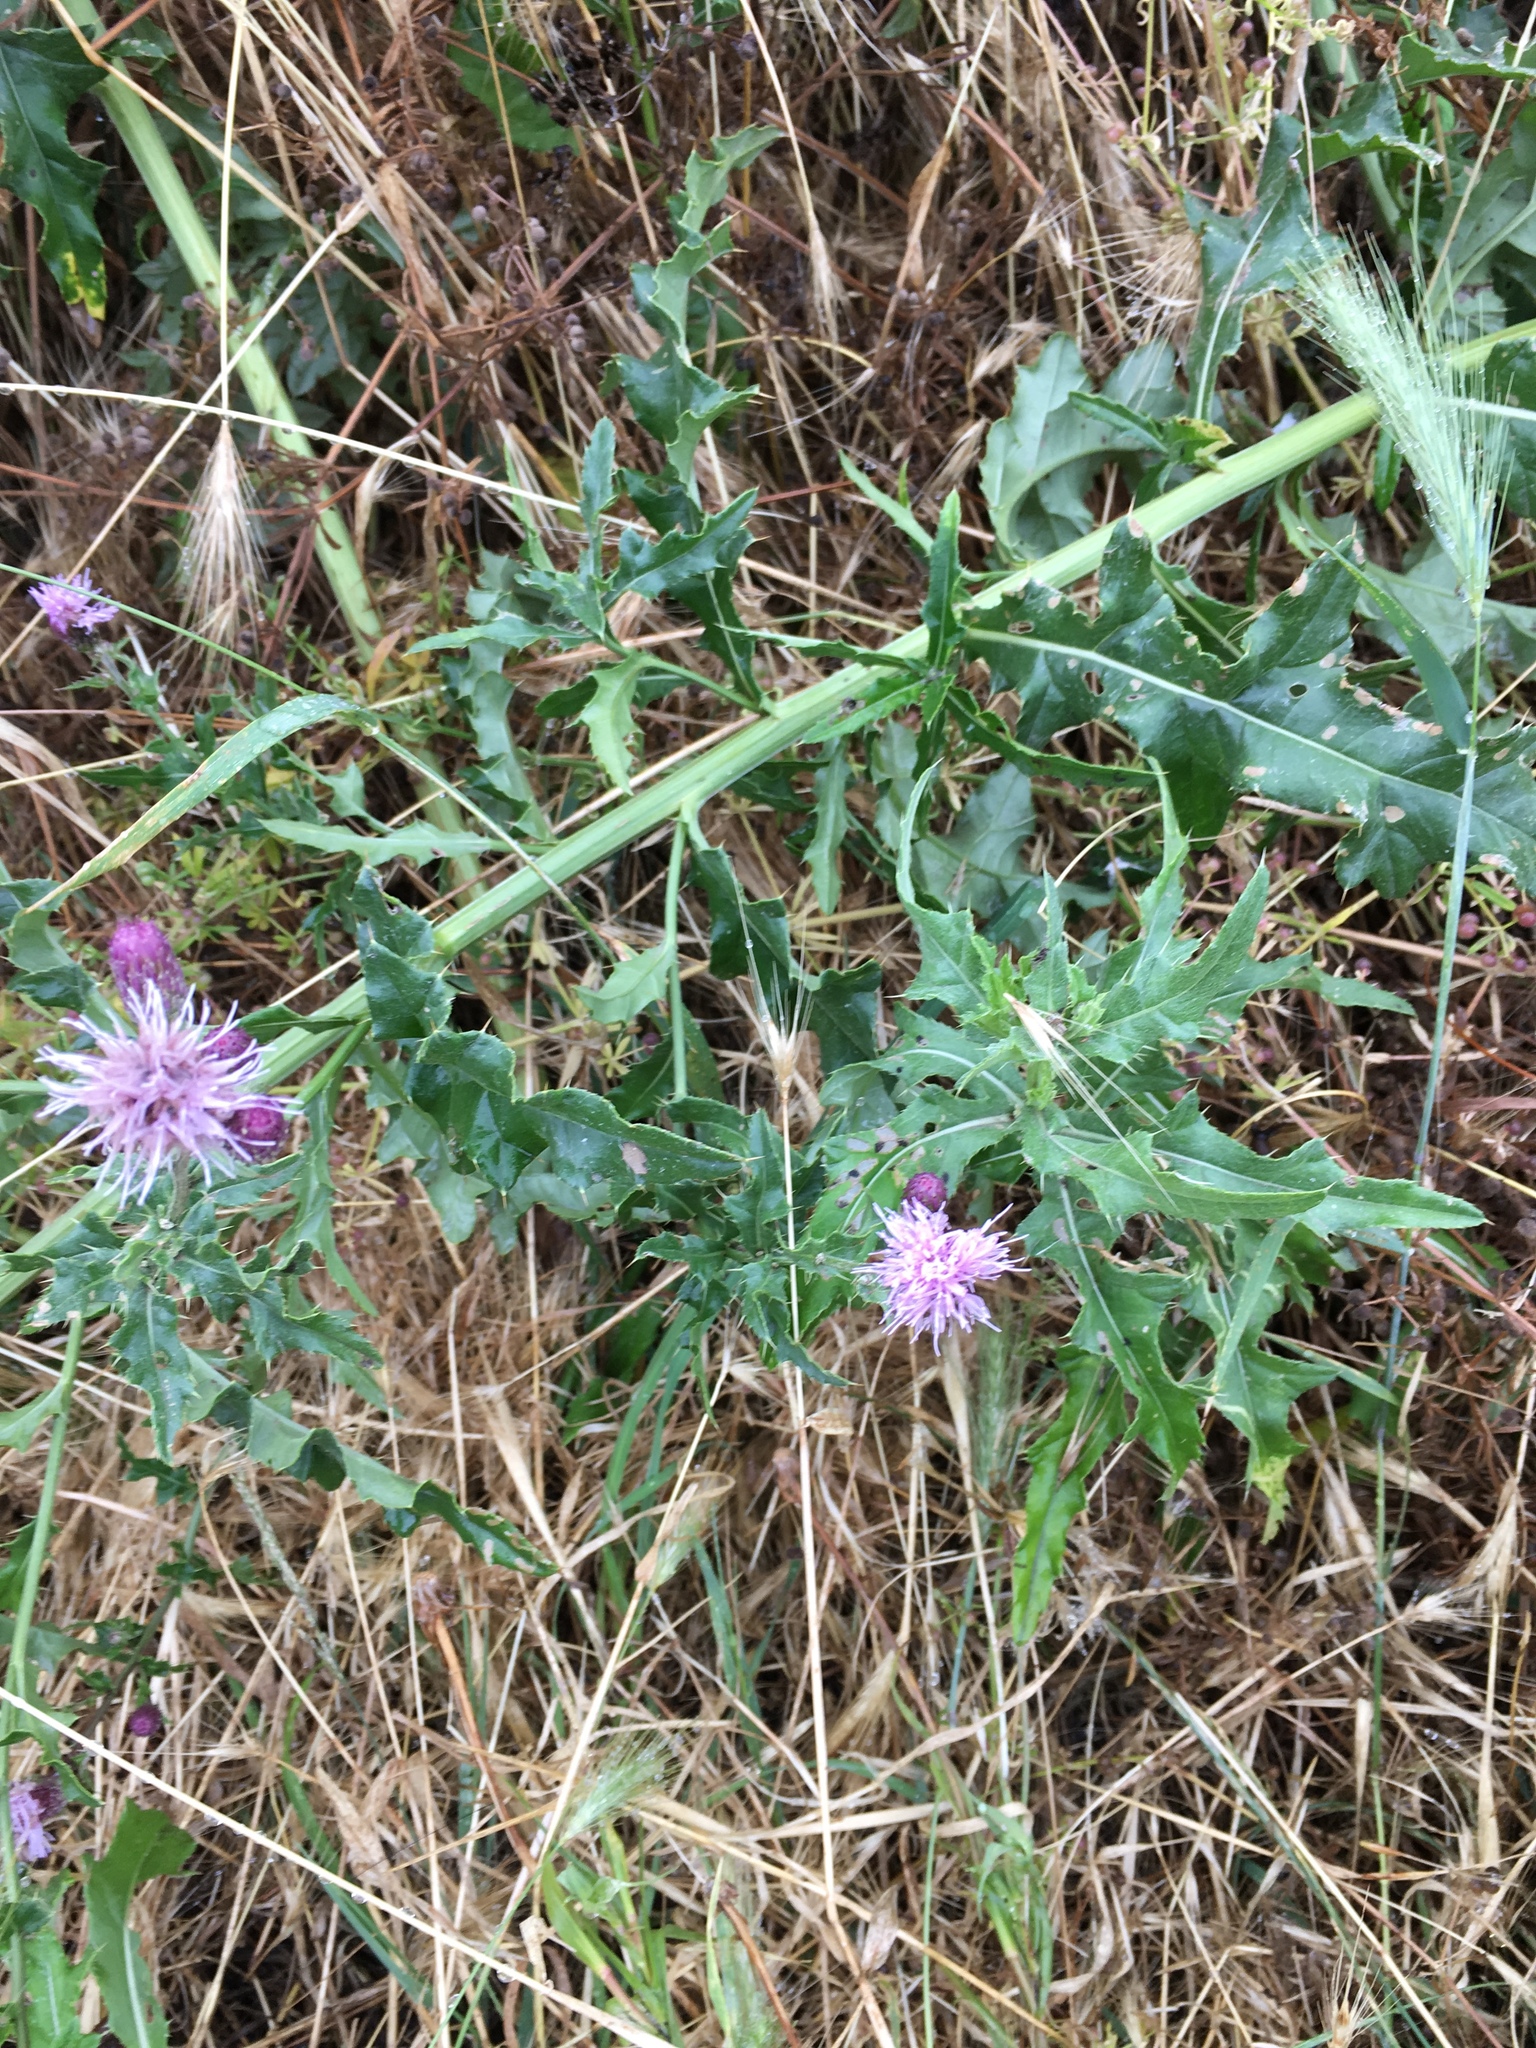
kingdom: Plantae
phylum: Tracheophyta
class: Magnoliopsida
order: Asterales
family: Asteraceae
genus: Cirsium
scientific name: Cirsium arvense
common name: Creeping thistle
